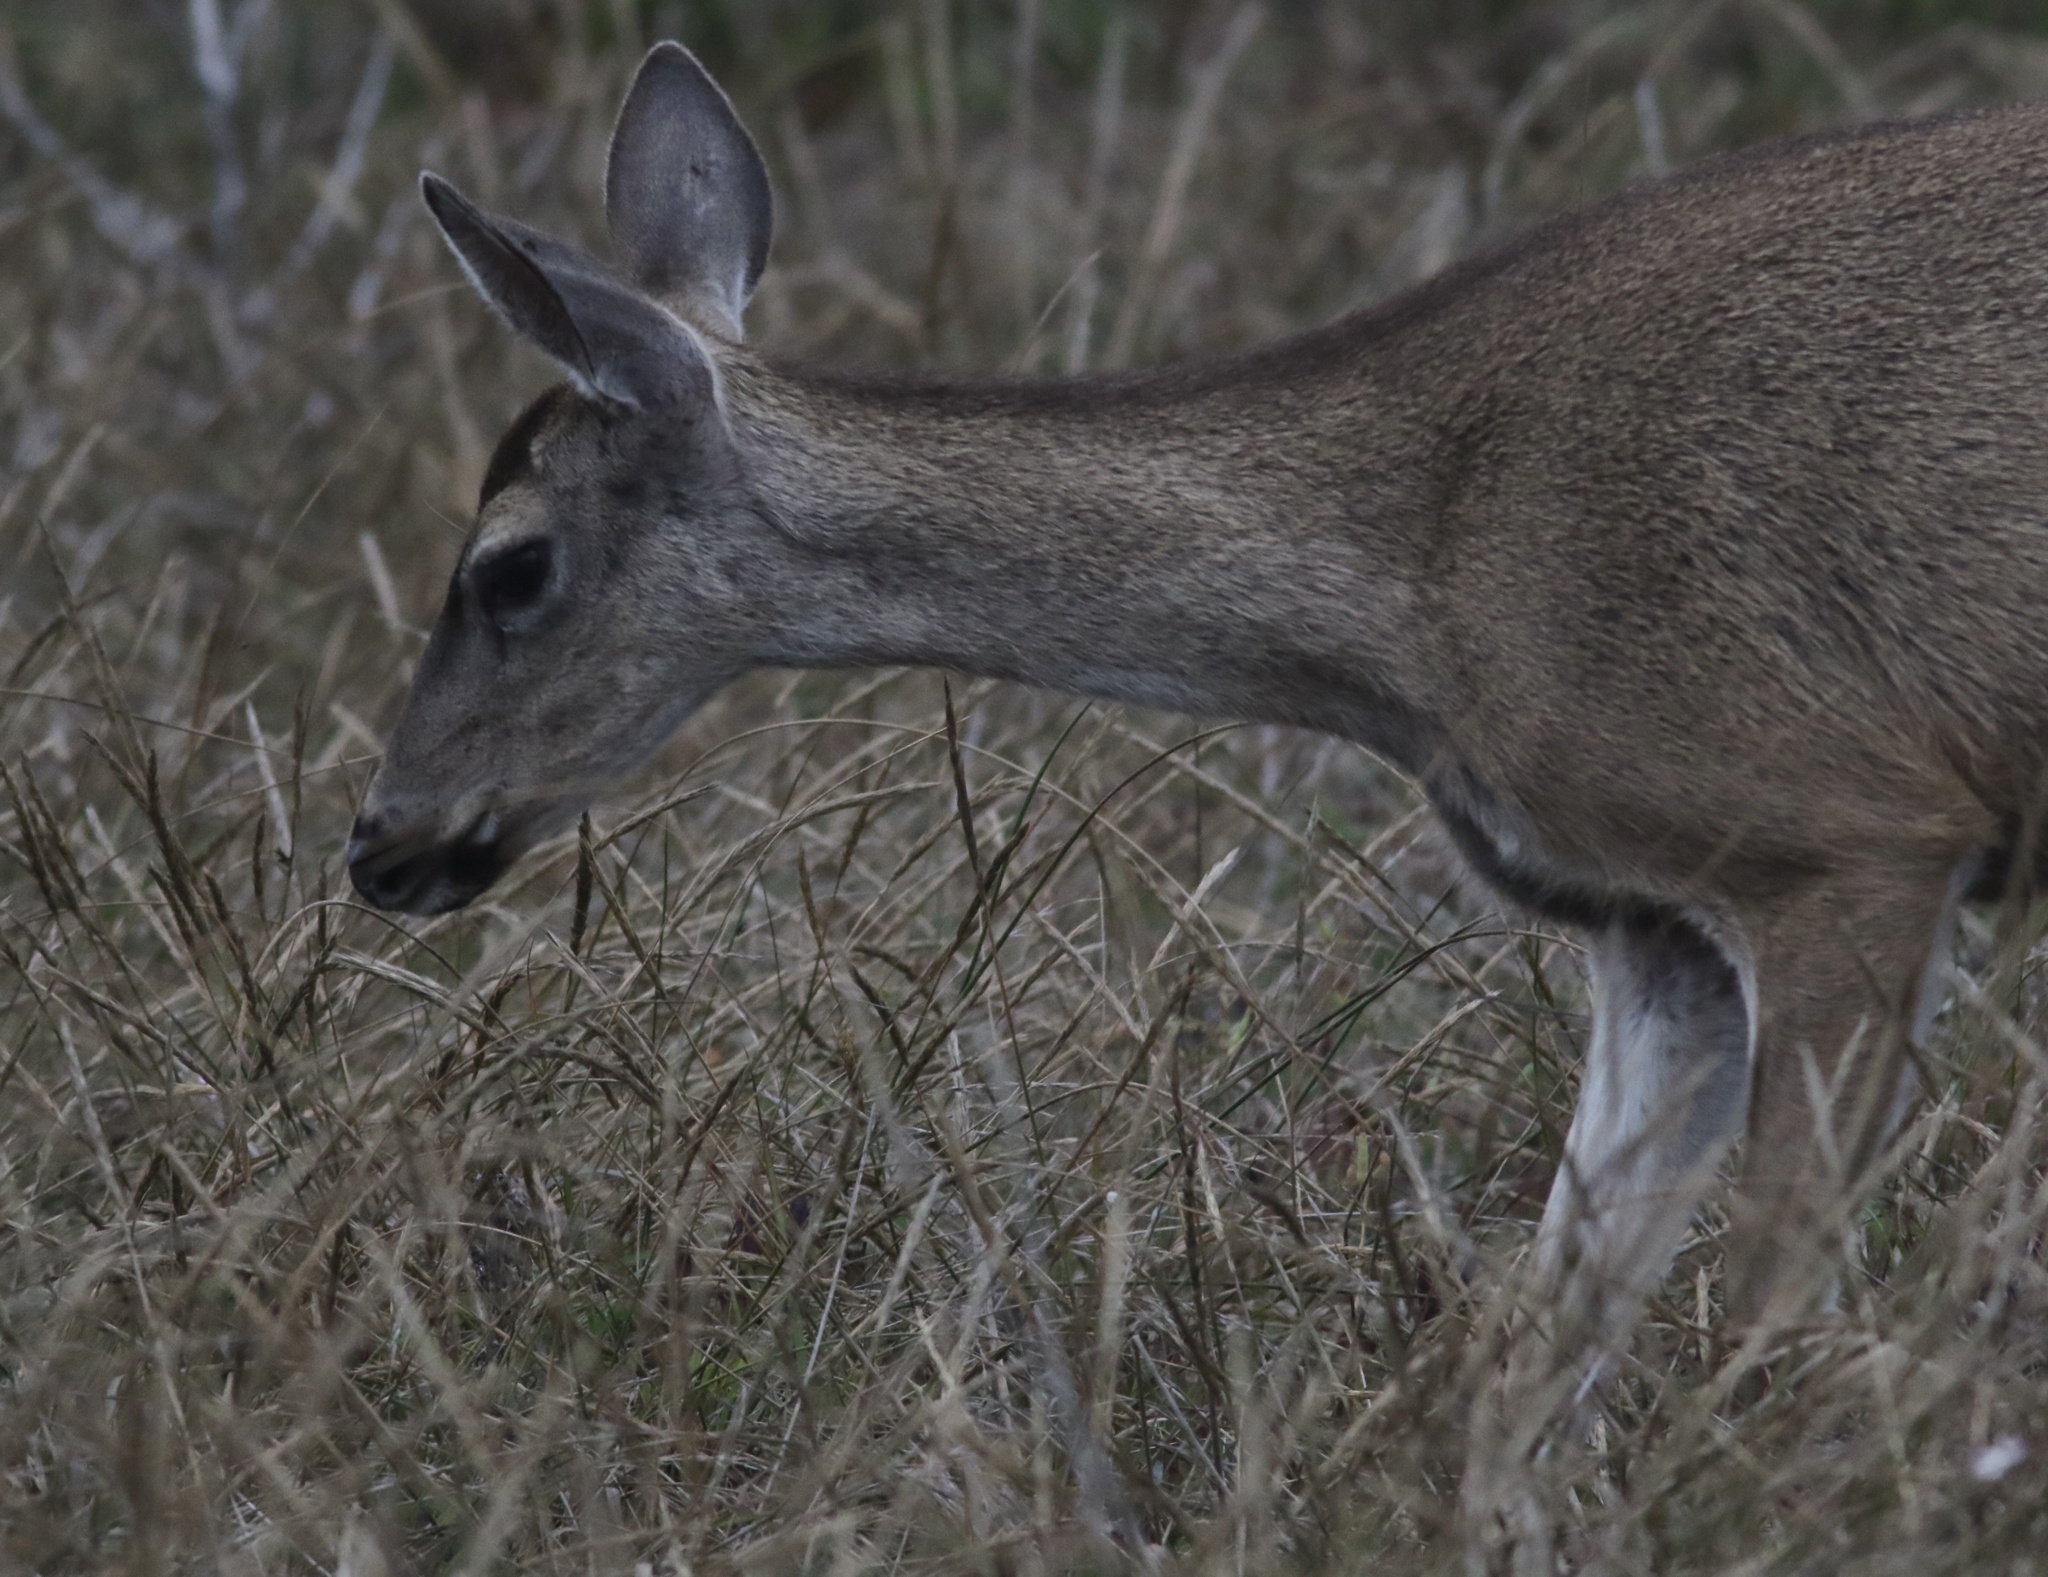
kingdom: Animalia
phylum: Chordata
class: Mammalia
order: Artiodactyla
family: Cervidae
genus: Odocoileus
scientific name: Odocoileus hemionus
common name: Mule deer
